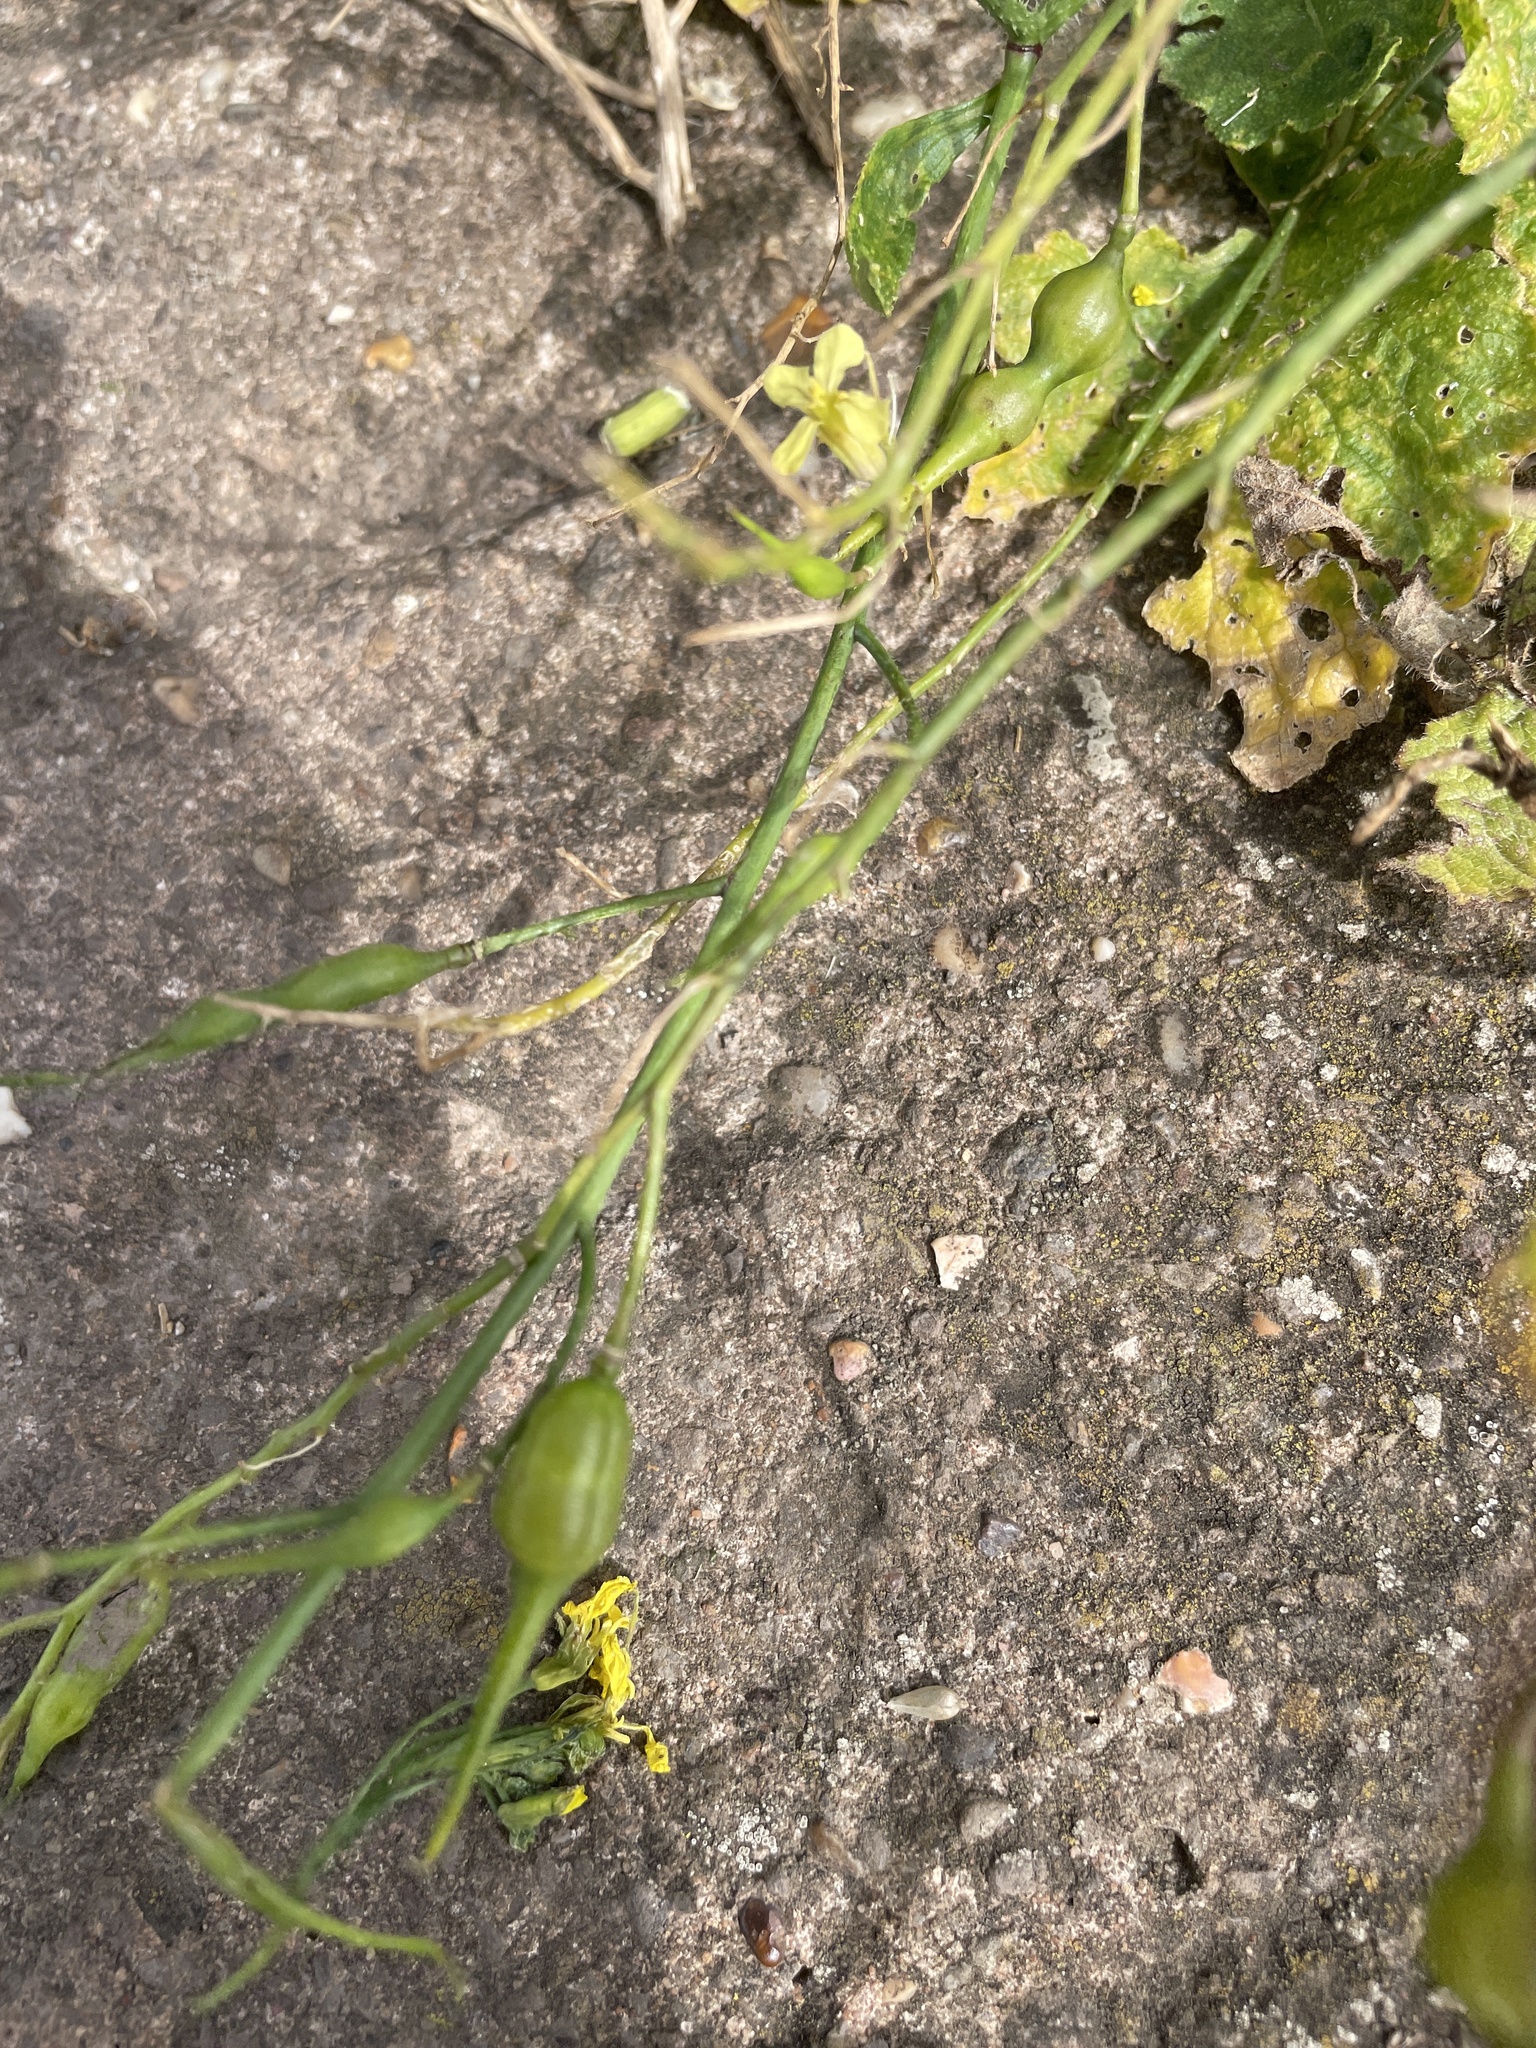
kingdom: Plantae
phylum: Tracheophyta
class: Magnoliopsida
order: Brassicales
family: Brassicaceae
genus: Raphanus
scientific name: Raphanus raphanistrum
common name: Wild radish
